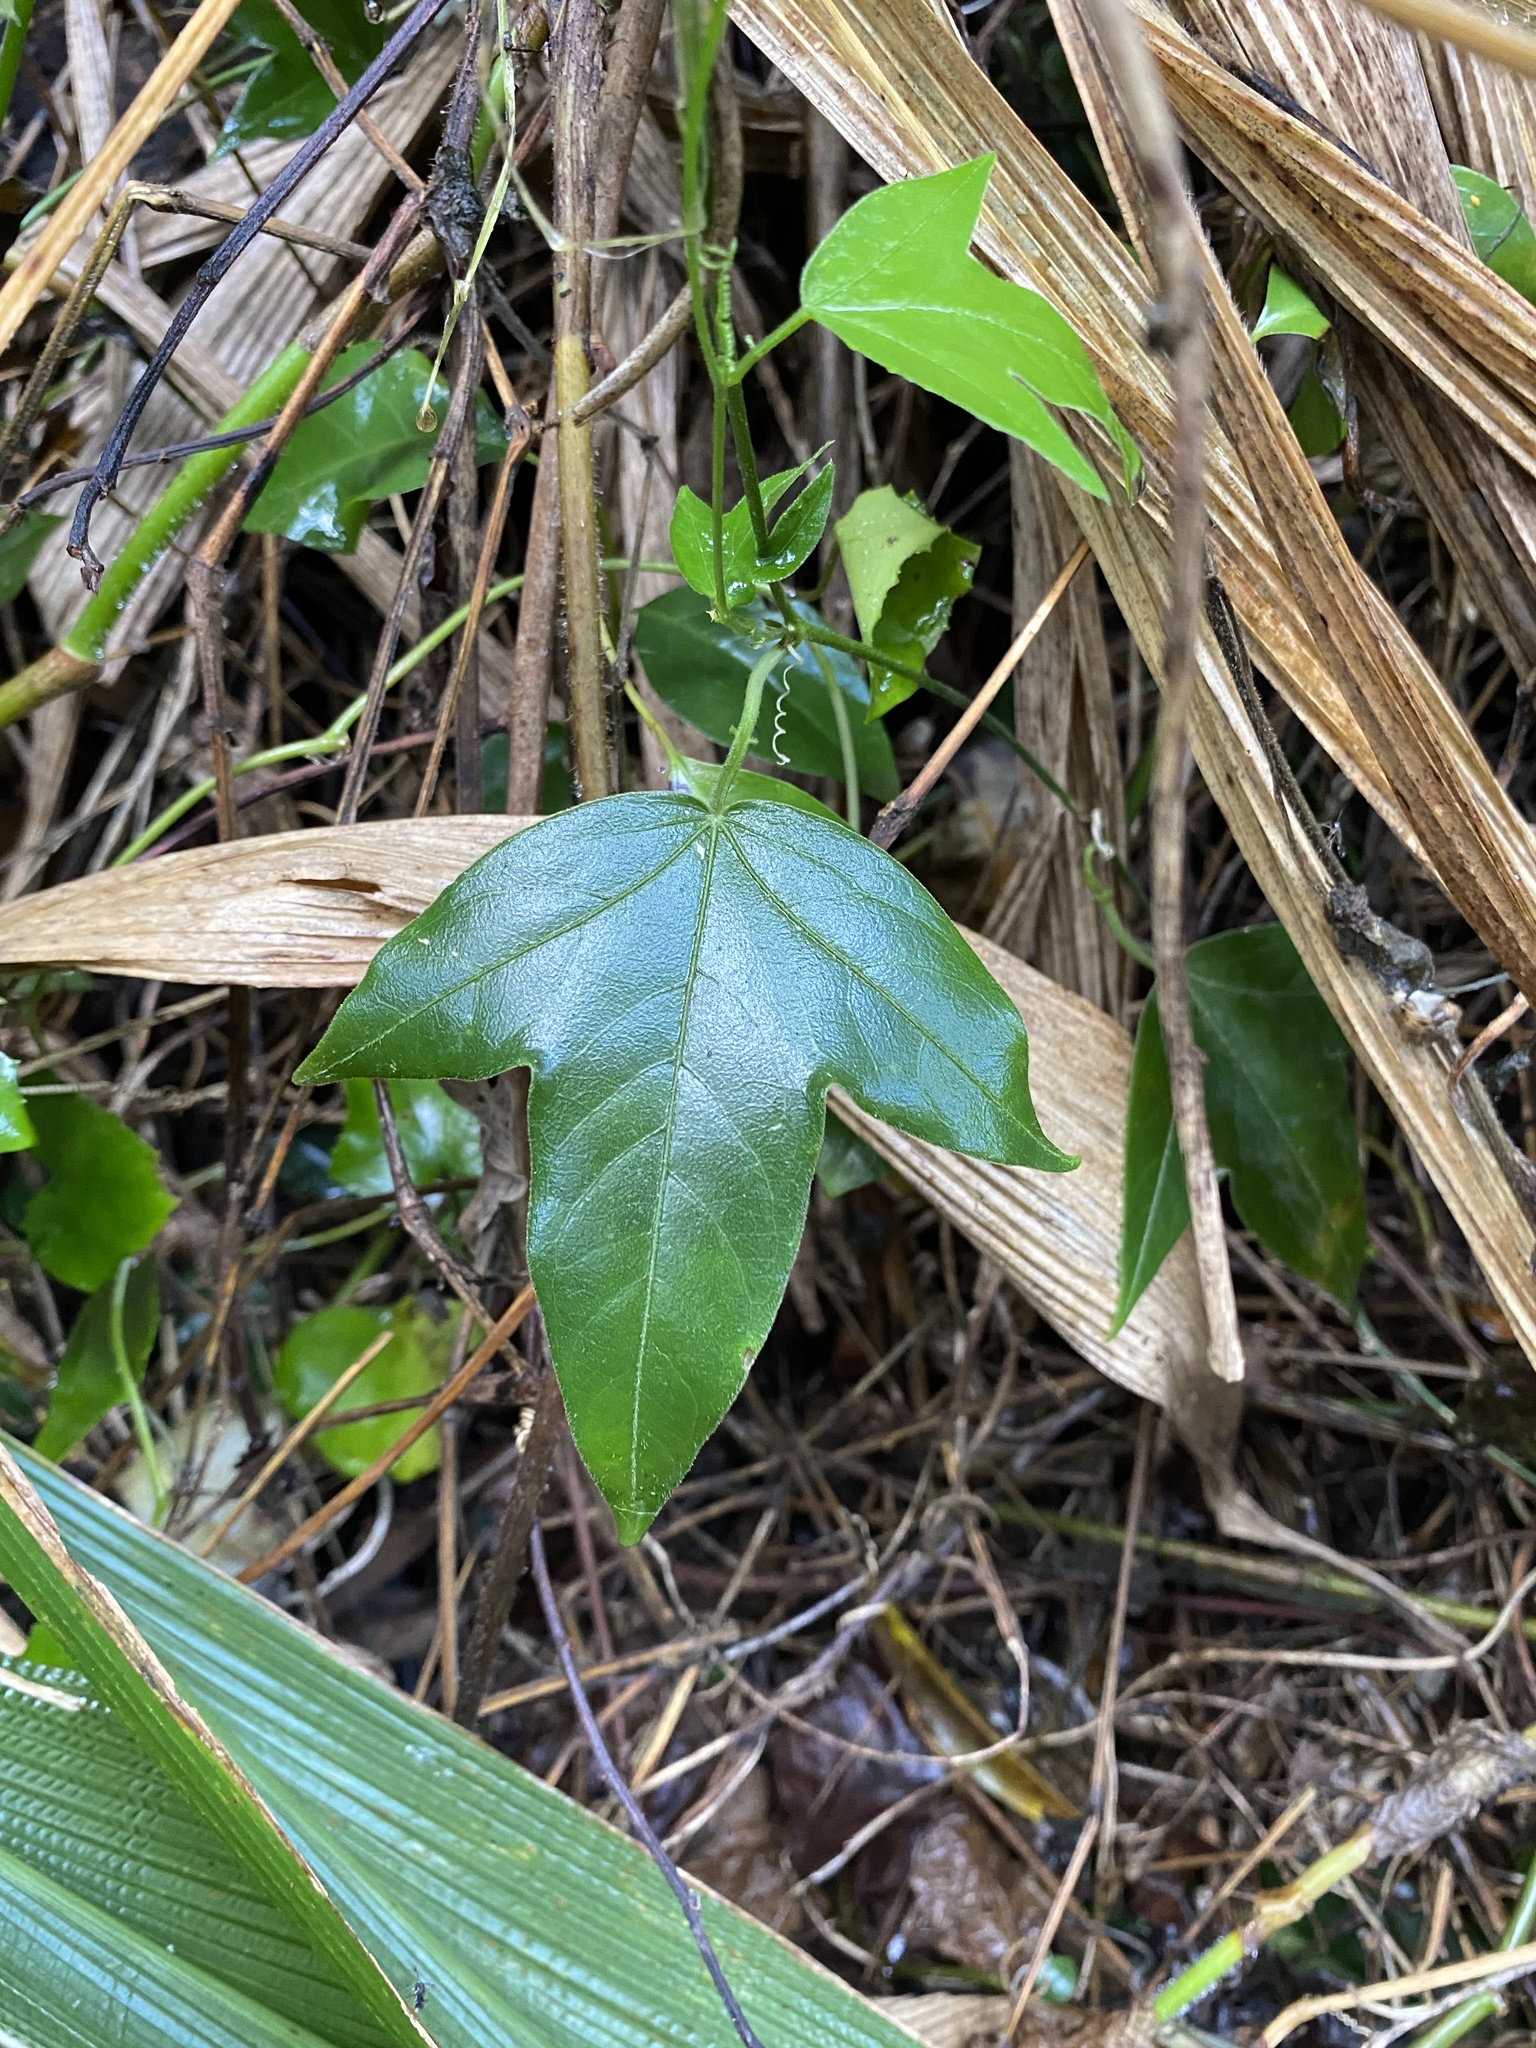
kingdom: Plantae
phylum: Tracheophyta
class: Magnoliopsida
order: Malpighiales
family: Passifloraceae
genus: Passiflora
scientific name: Passiflora suberosa
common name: Wild passionfruit
